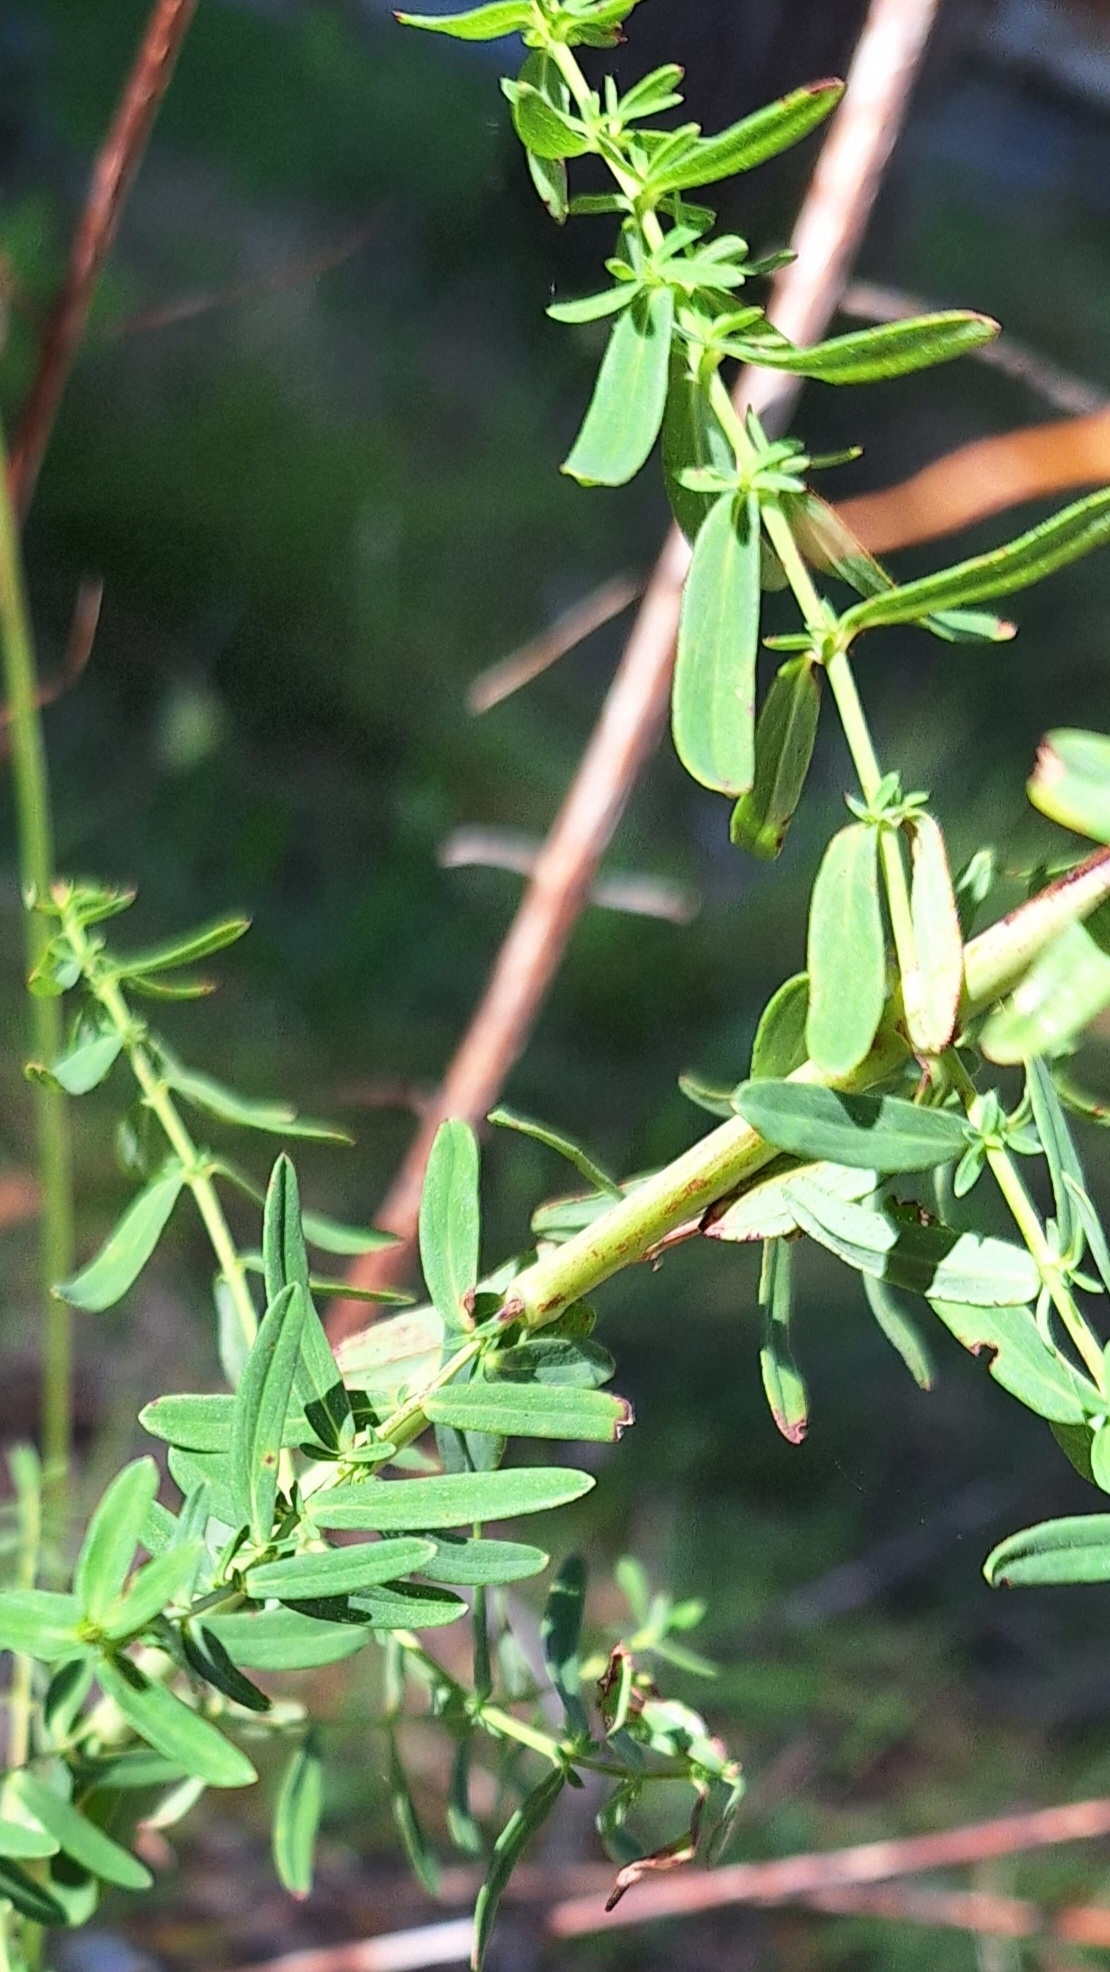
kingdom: Plantae
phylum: Tracheophyta
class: Magnoliopsida
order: Malpighiales
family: Hypericaceae
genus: Hypericum
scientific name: Hypericum perforatum
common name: Common st. johnswort
